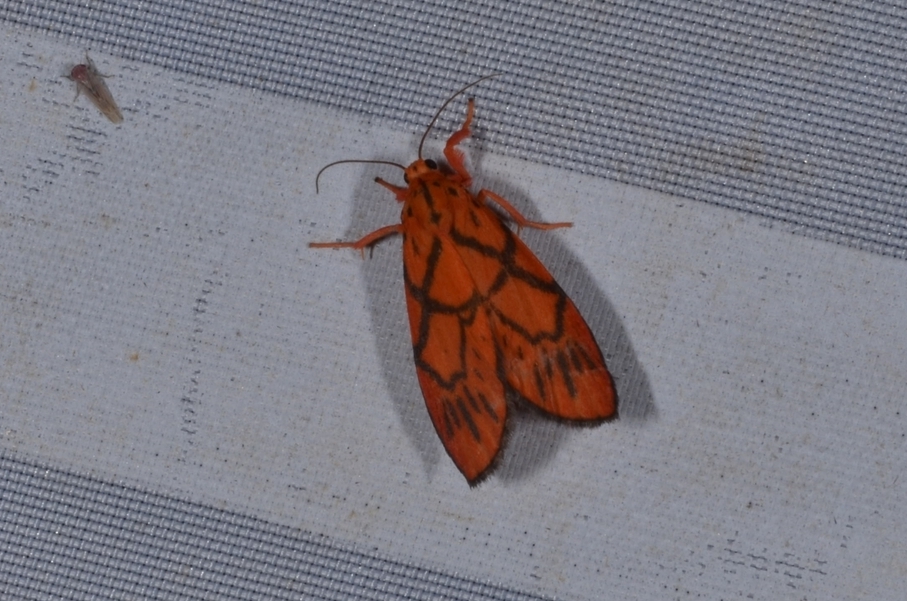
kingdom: Animalia
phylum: Arthropoda
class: Insecta
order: Lepidoptera
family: Erebidae
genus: Fossia
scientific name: Fossia bachma
